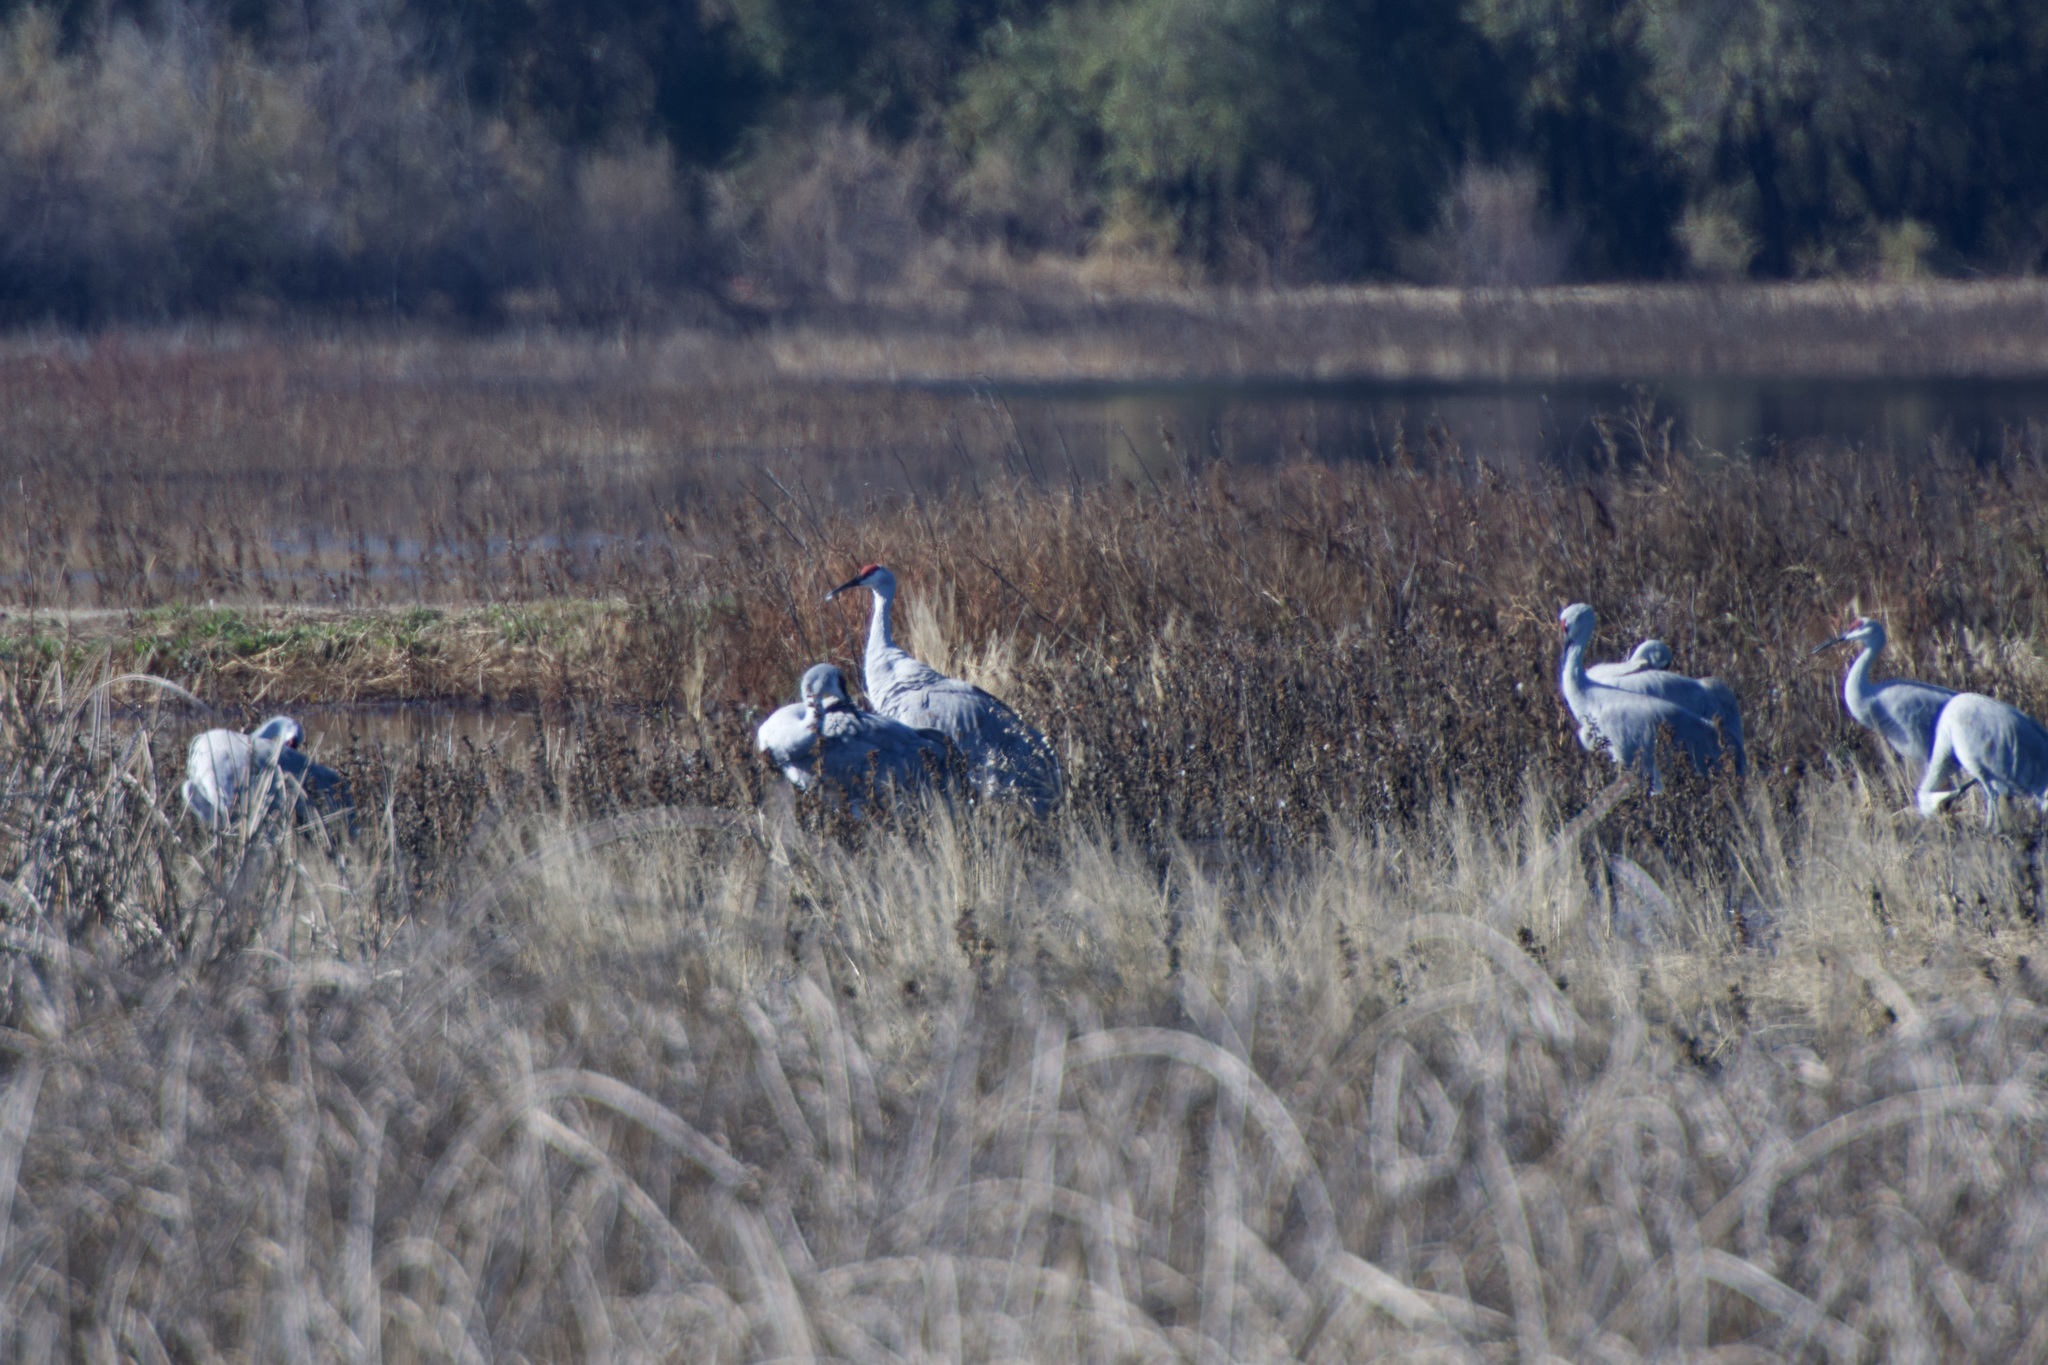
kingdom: Animalia
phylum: Chordata
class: Aves
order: Gruiformes
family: Gruidae
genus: Grus
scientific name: Grus canadensis
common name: Sandhill crane
